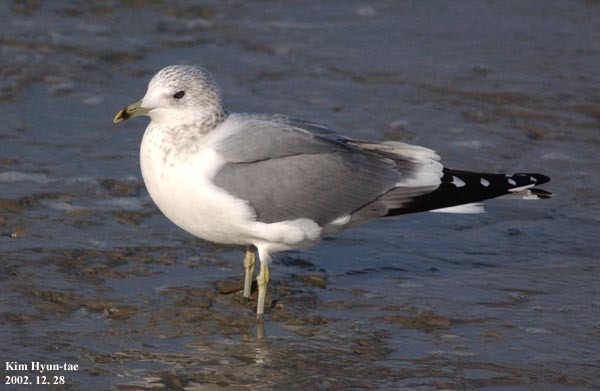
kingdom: Animalia
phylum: Chordata
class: Aves
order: Charadriiformes
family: Laridae
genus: Larus
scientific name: Larus canus
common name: Mew gull
